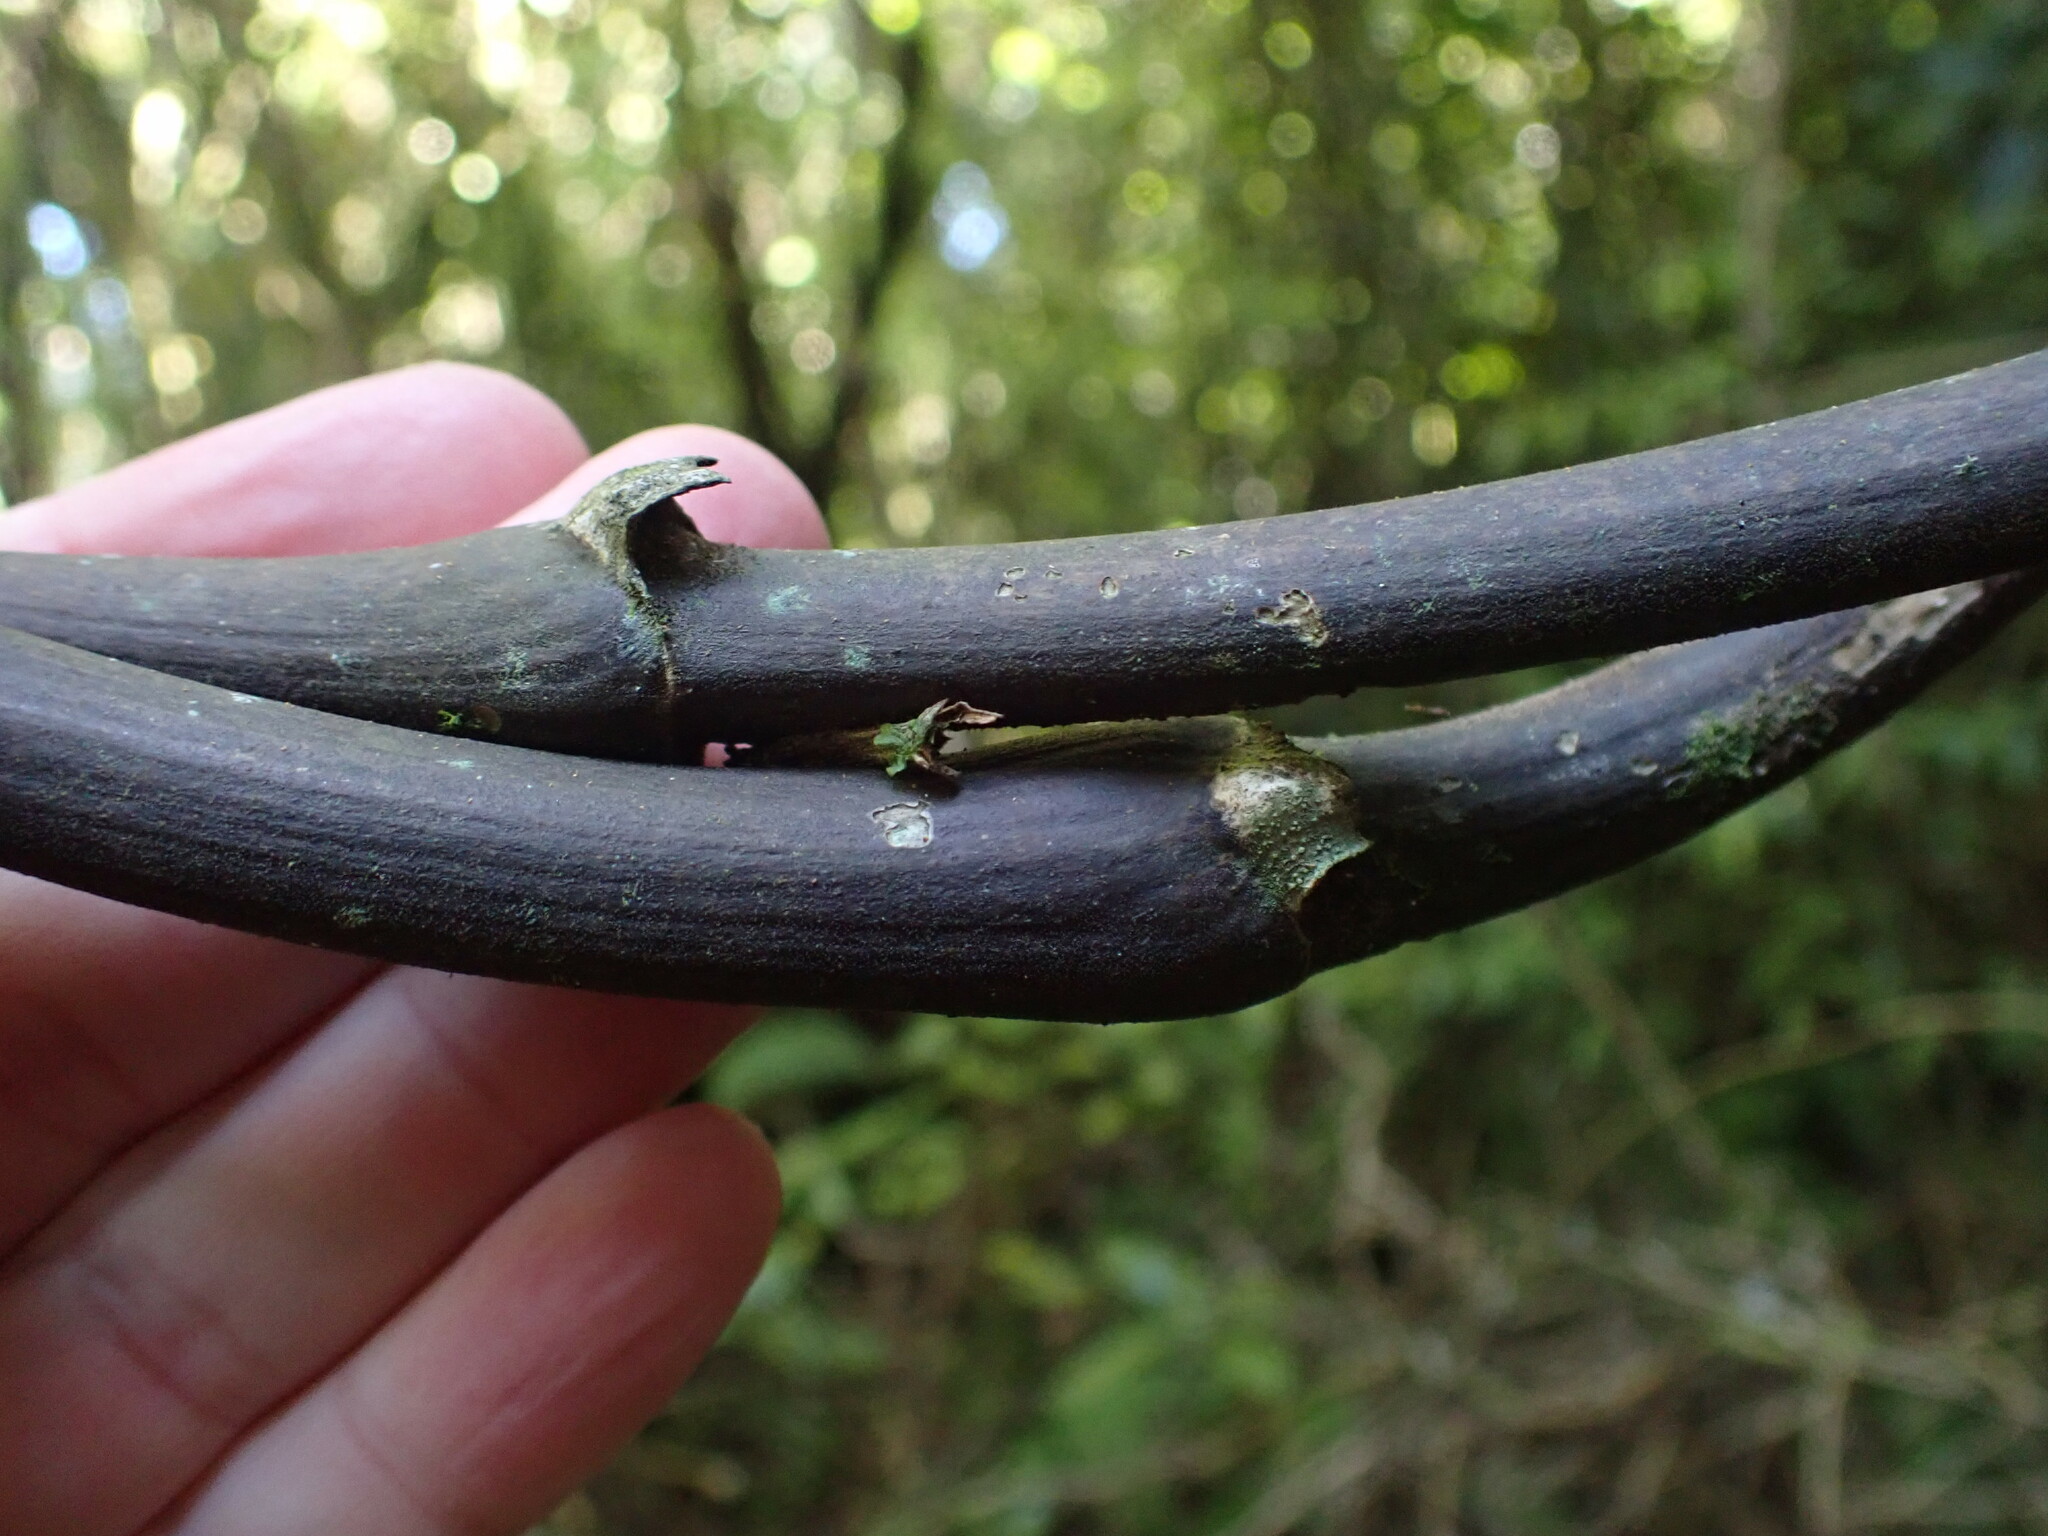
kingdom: Plantae
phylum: Tracheophyta
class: Liliopsida
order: Liliales
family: Ripogonaceae
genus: Ripogonum
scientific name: Ripogonum scandens
